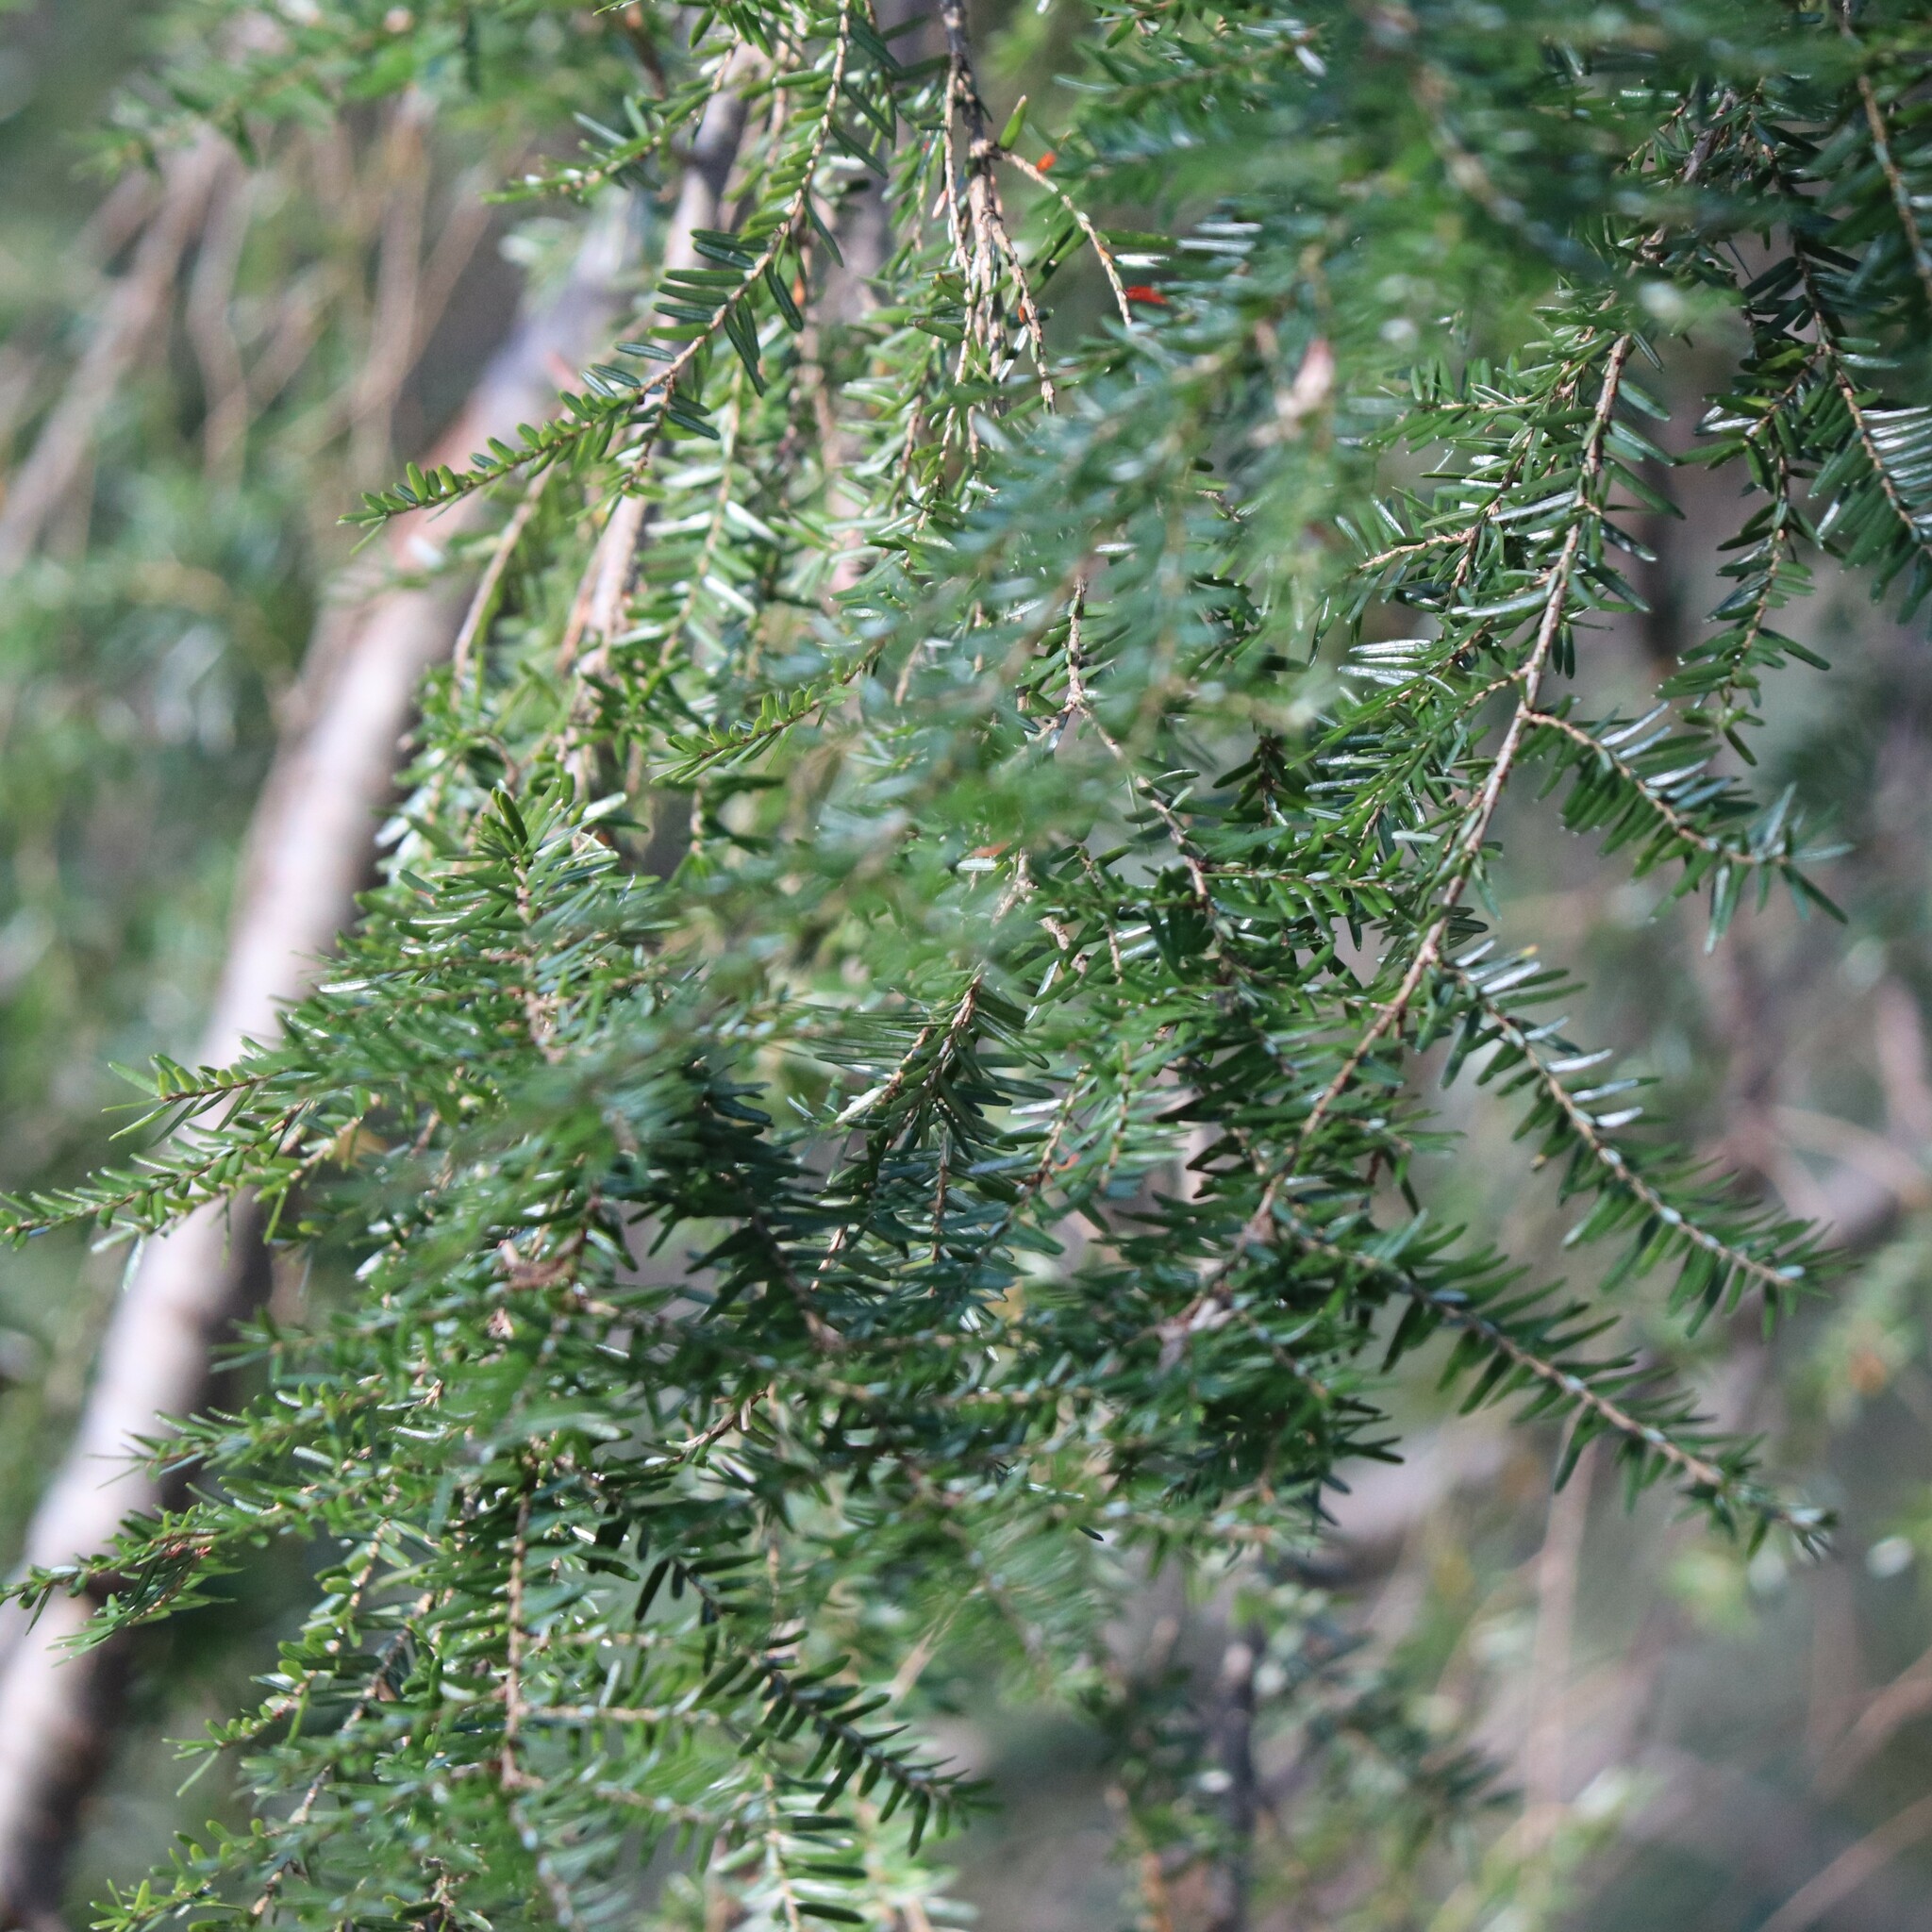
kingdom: Plantae
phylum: Tracheophyta
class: Pinopsida
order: Pinales
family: Pinaceae
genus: Tsuga
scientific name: Tsuga canadensis
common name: Eastern hemlock
